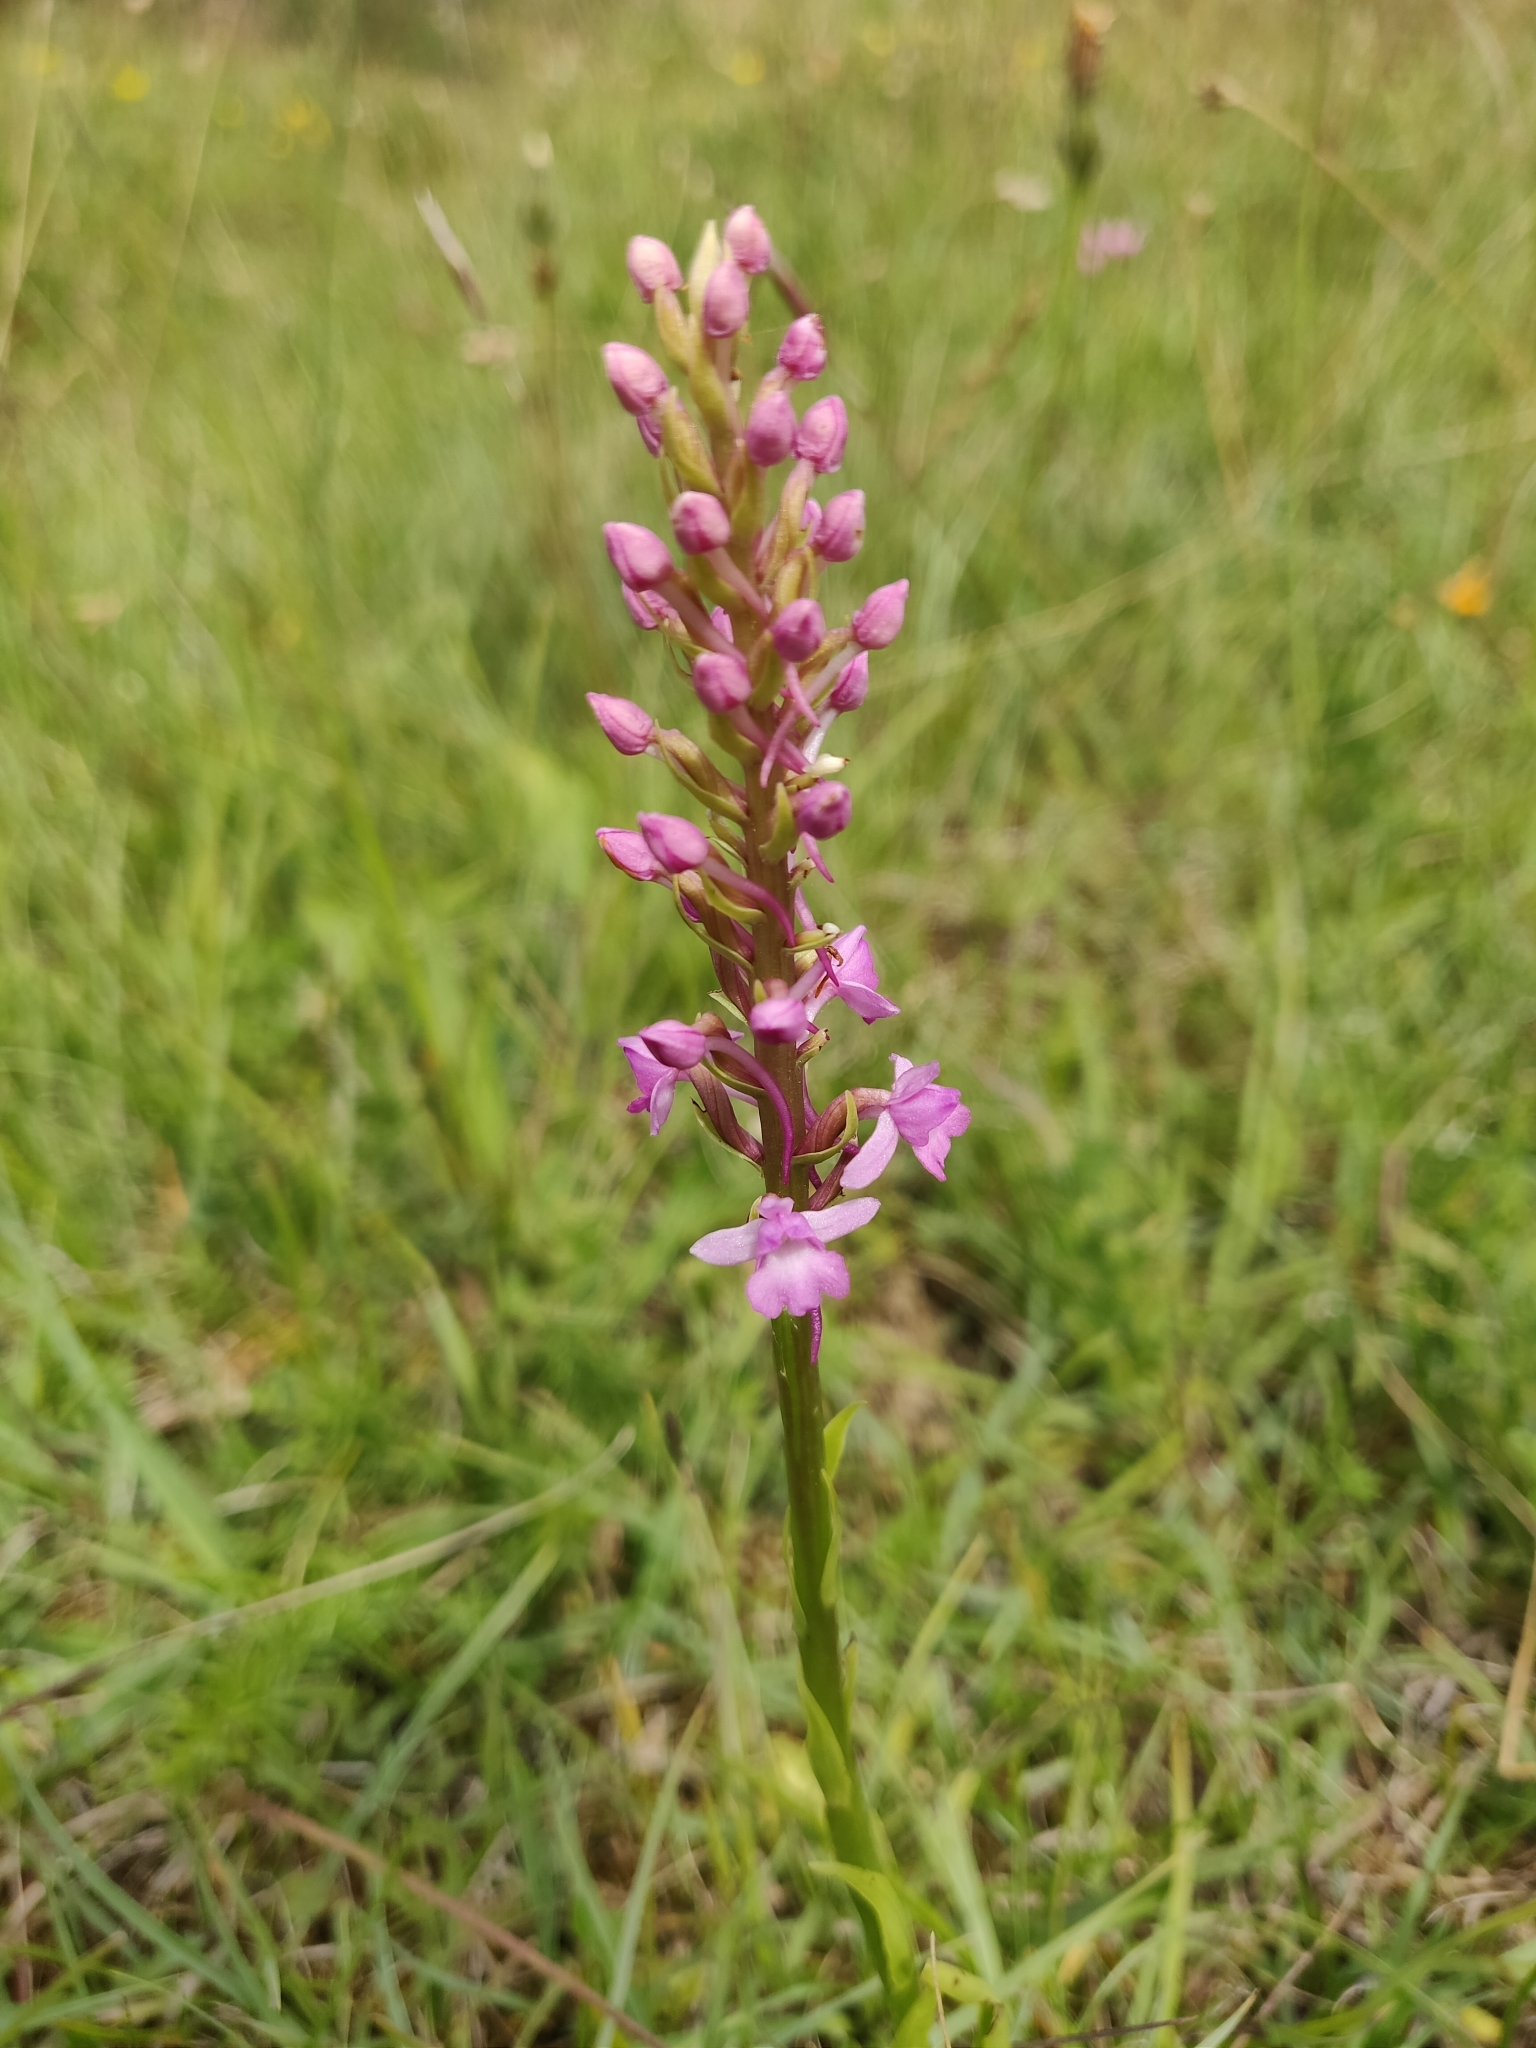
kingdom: Plantae
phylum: Tracheophyta
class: Liliopsida
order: Asparagales
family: Orchidaceae
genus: Gymnadenia
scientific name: Gymnadenia conopsea
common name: Fragrant orchid
